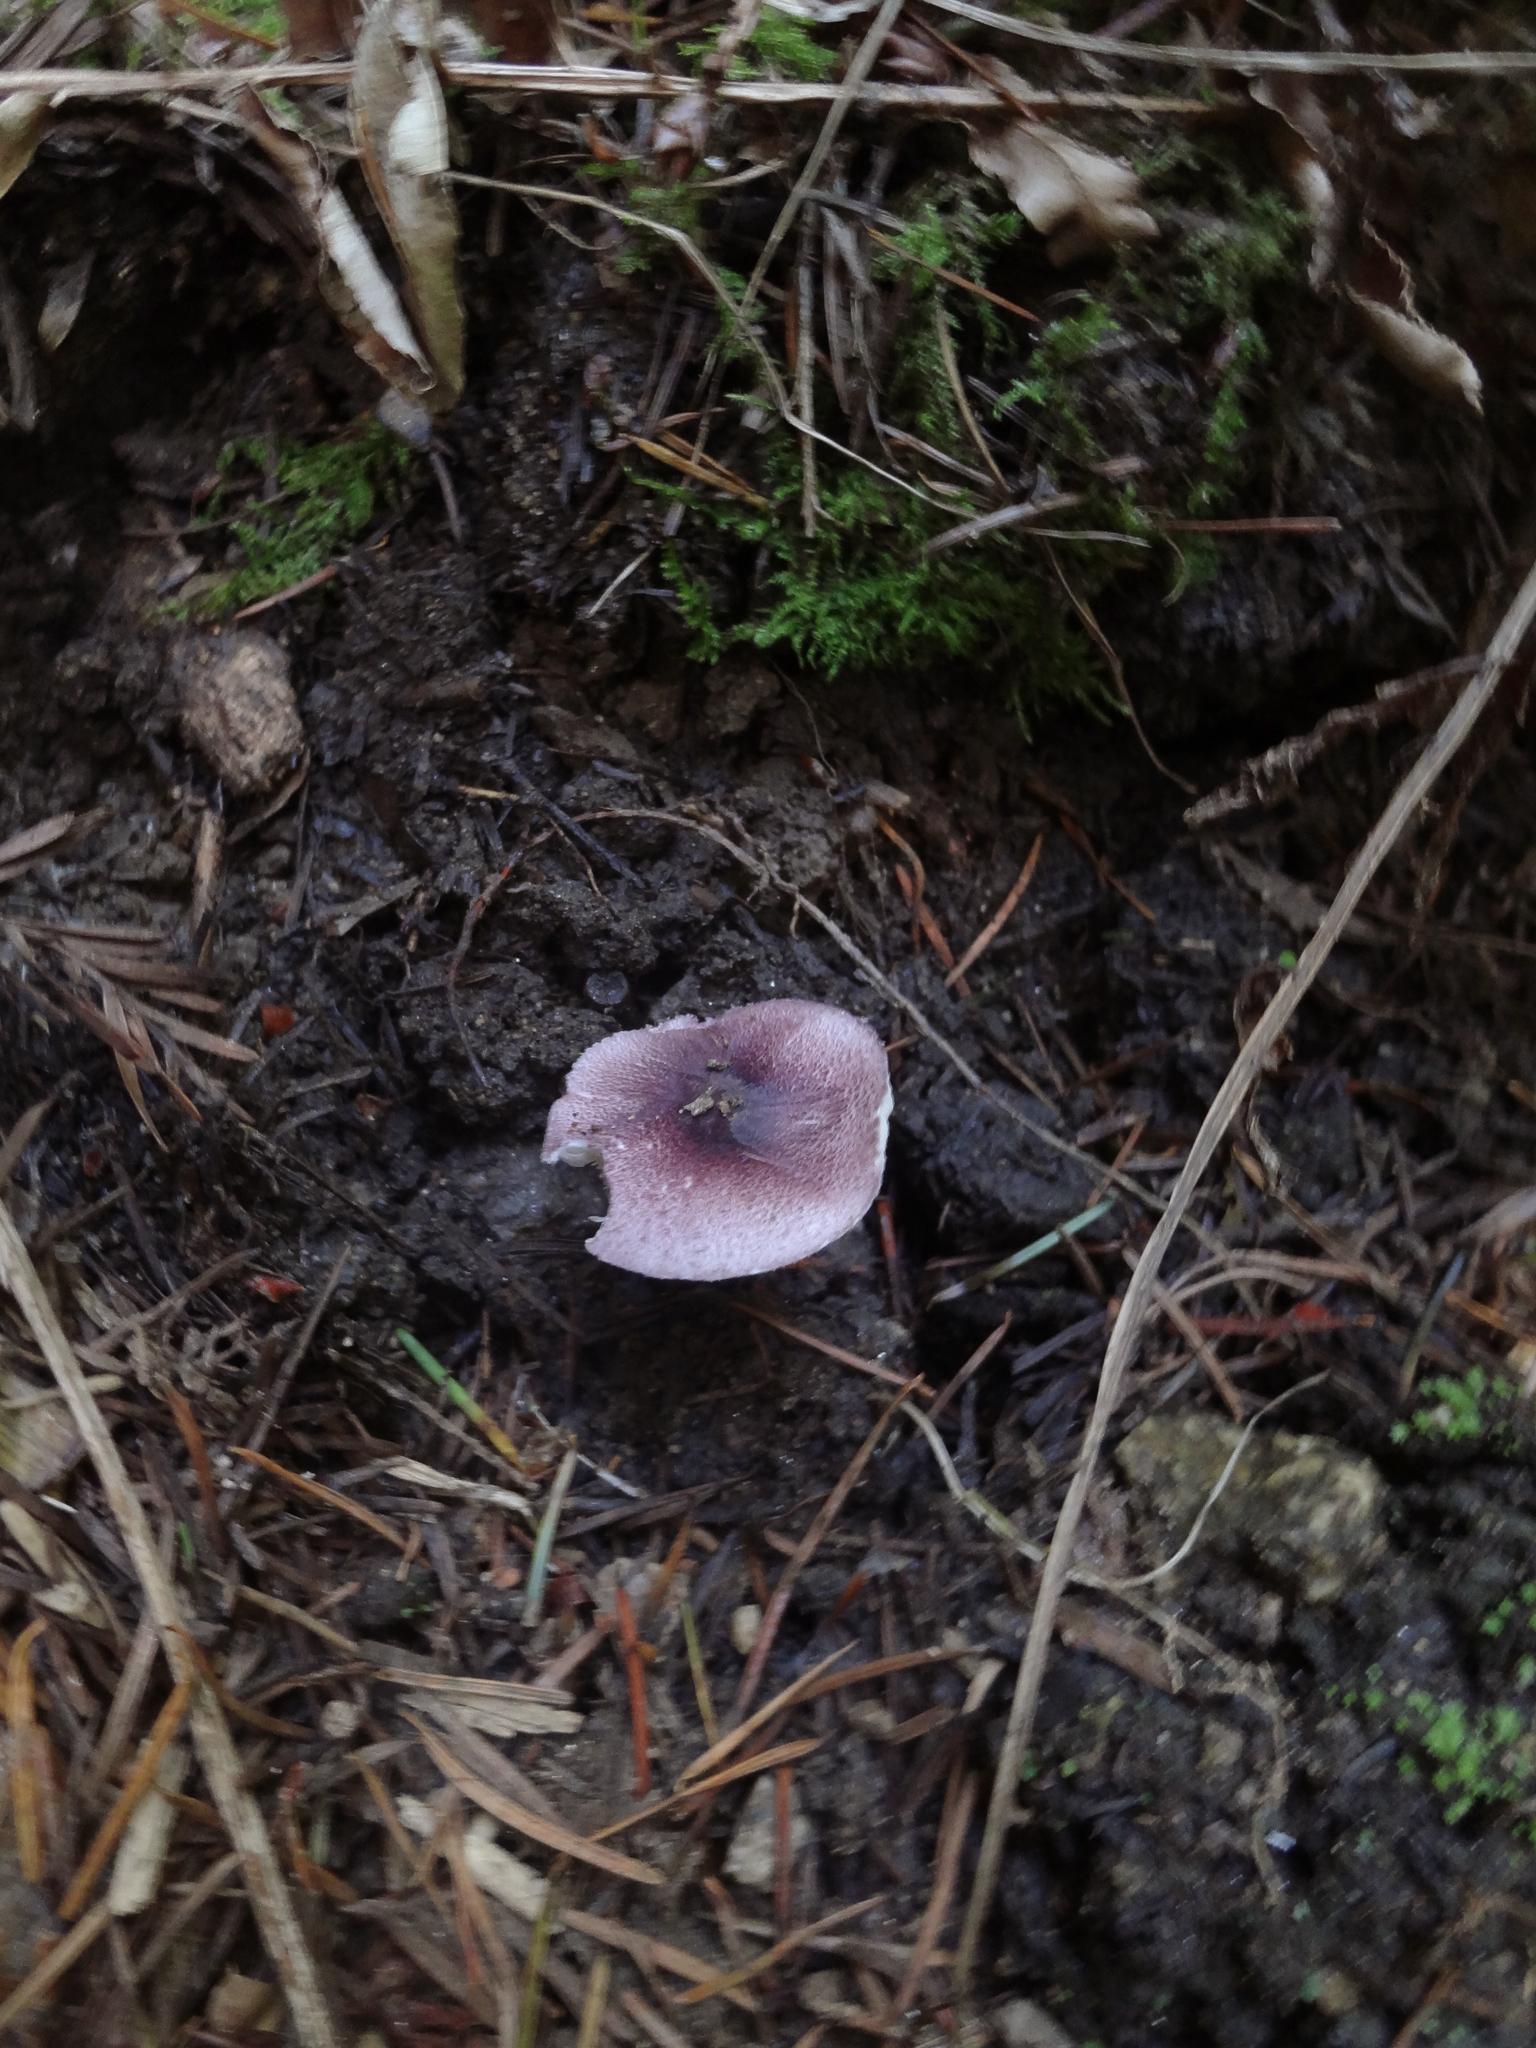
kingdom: Fungi
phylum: Basidiomycota
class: Agaricomycetes
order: Agaricales
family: Agaricaceae
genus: Leucoagaricus
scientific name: Leucoagaricus roseilividus
